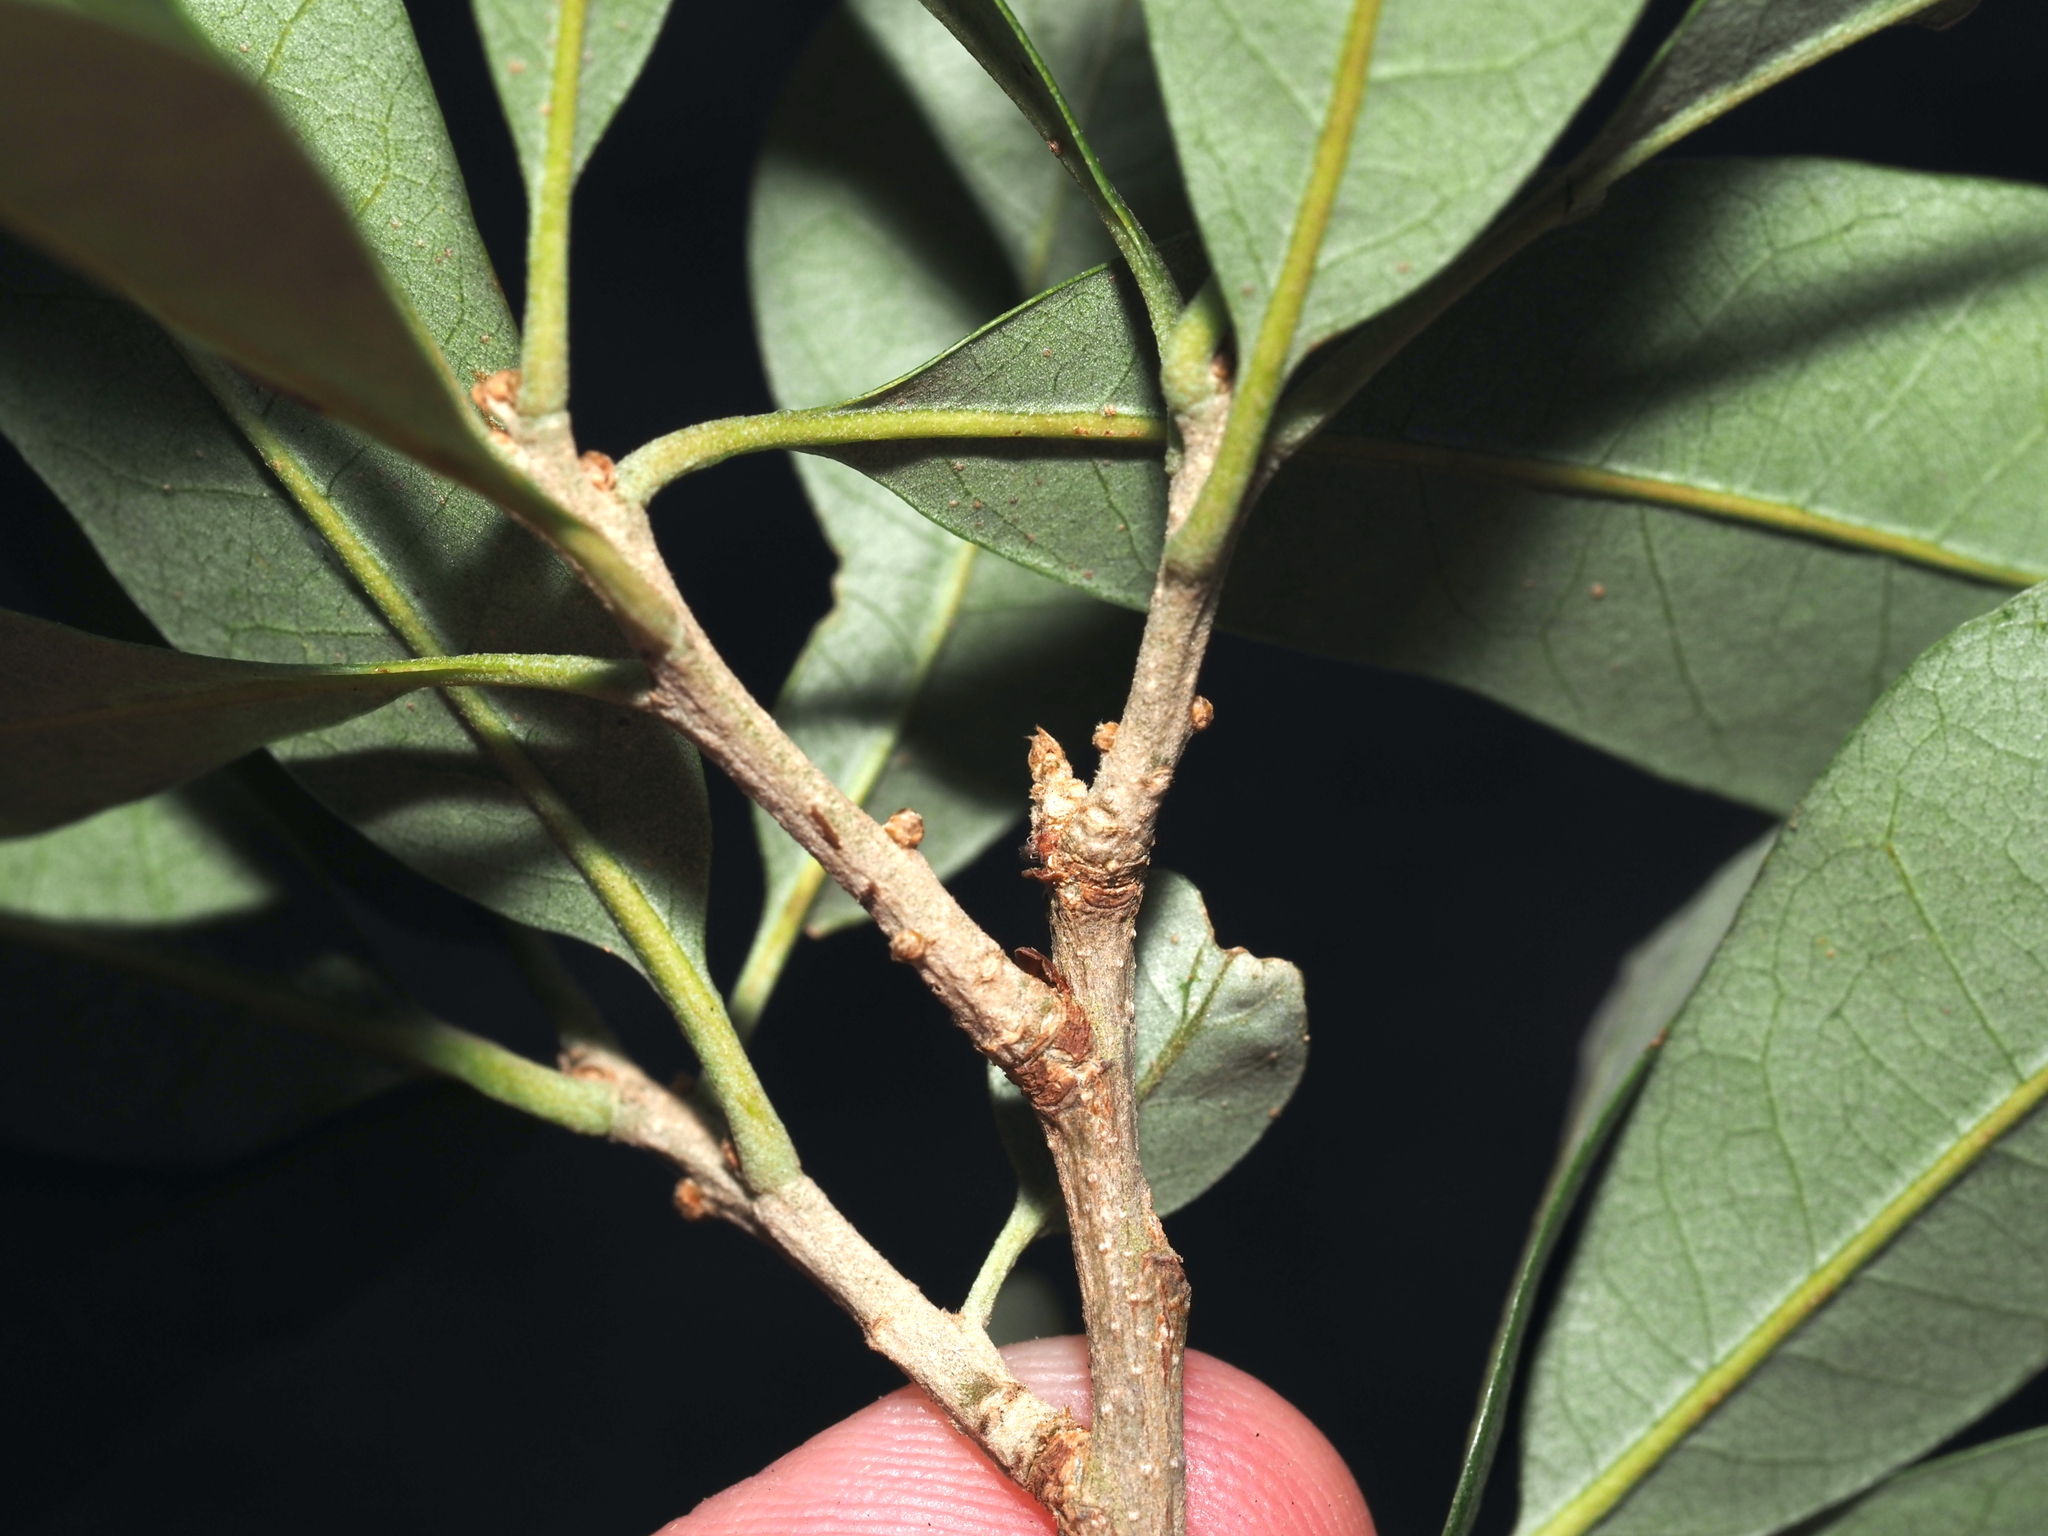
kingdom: Plantae
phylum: Tracheophyta
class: Magnoliopsida
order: Fagales
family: Fagaceae
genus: Quercus
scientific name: Quercus virginiana
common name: Southern live oak
